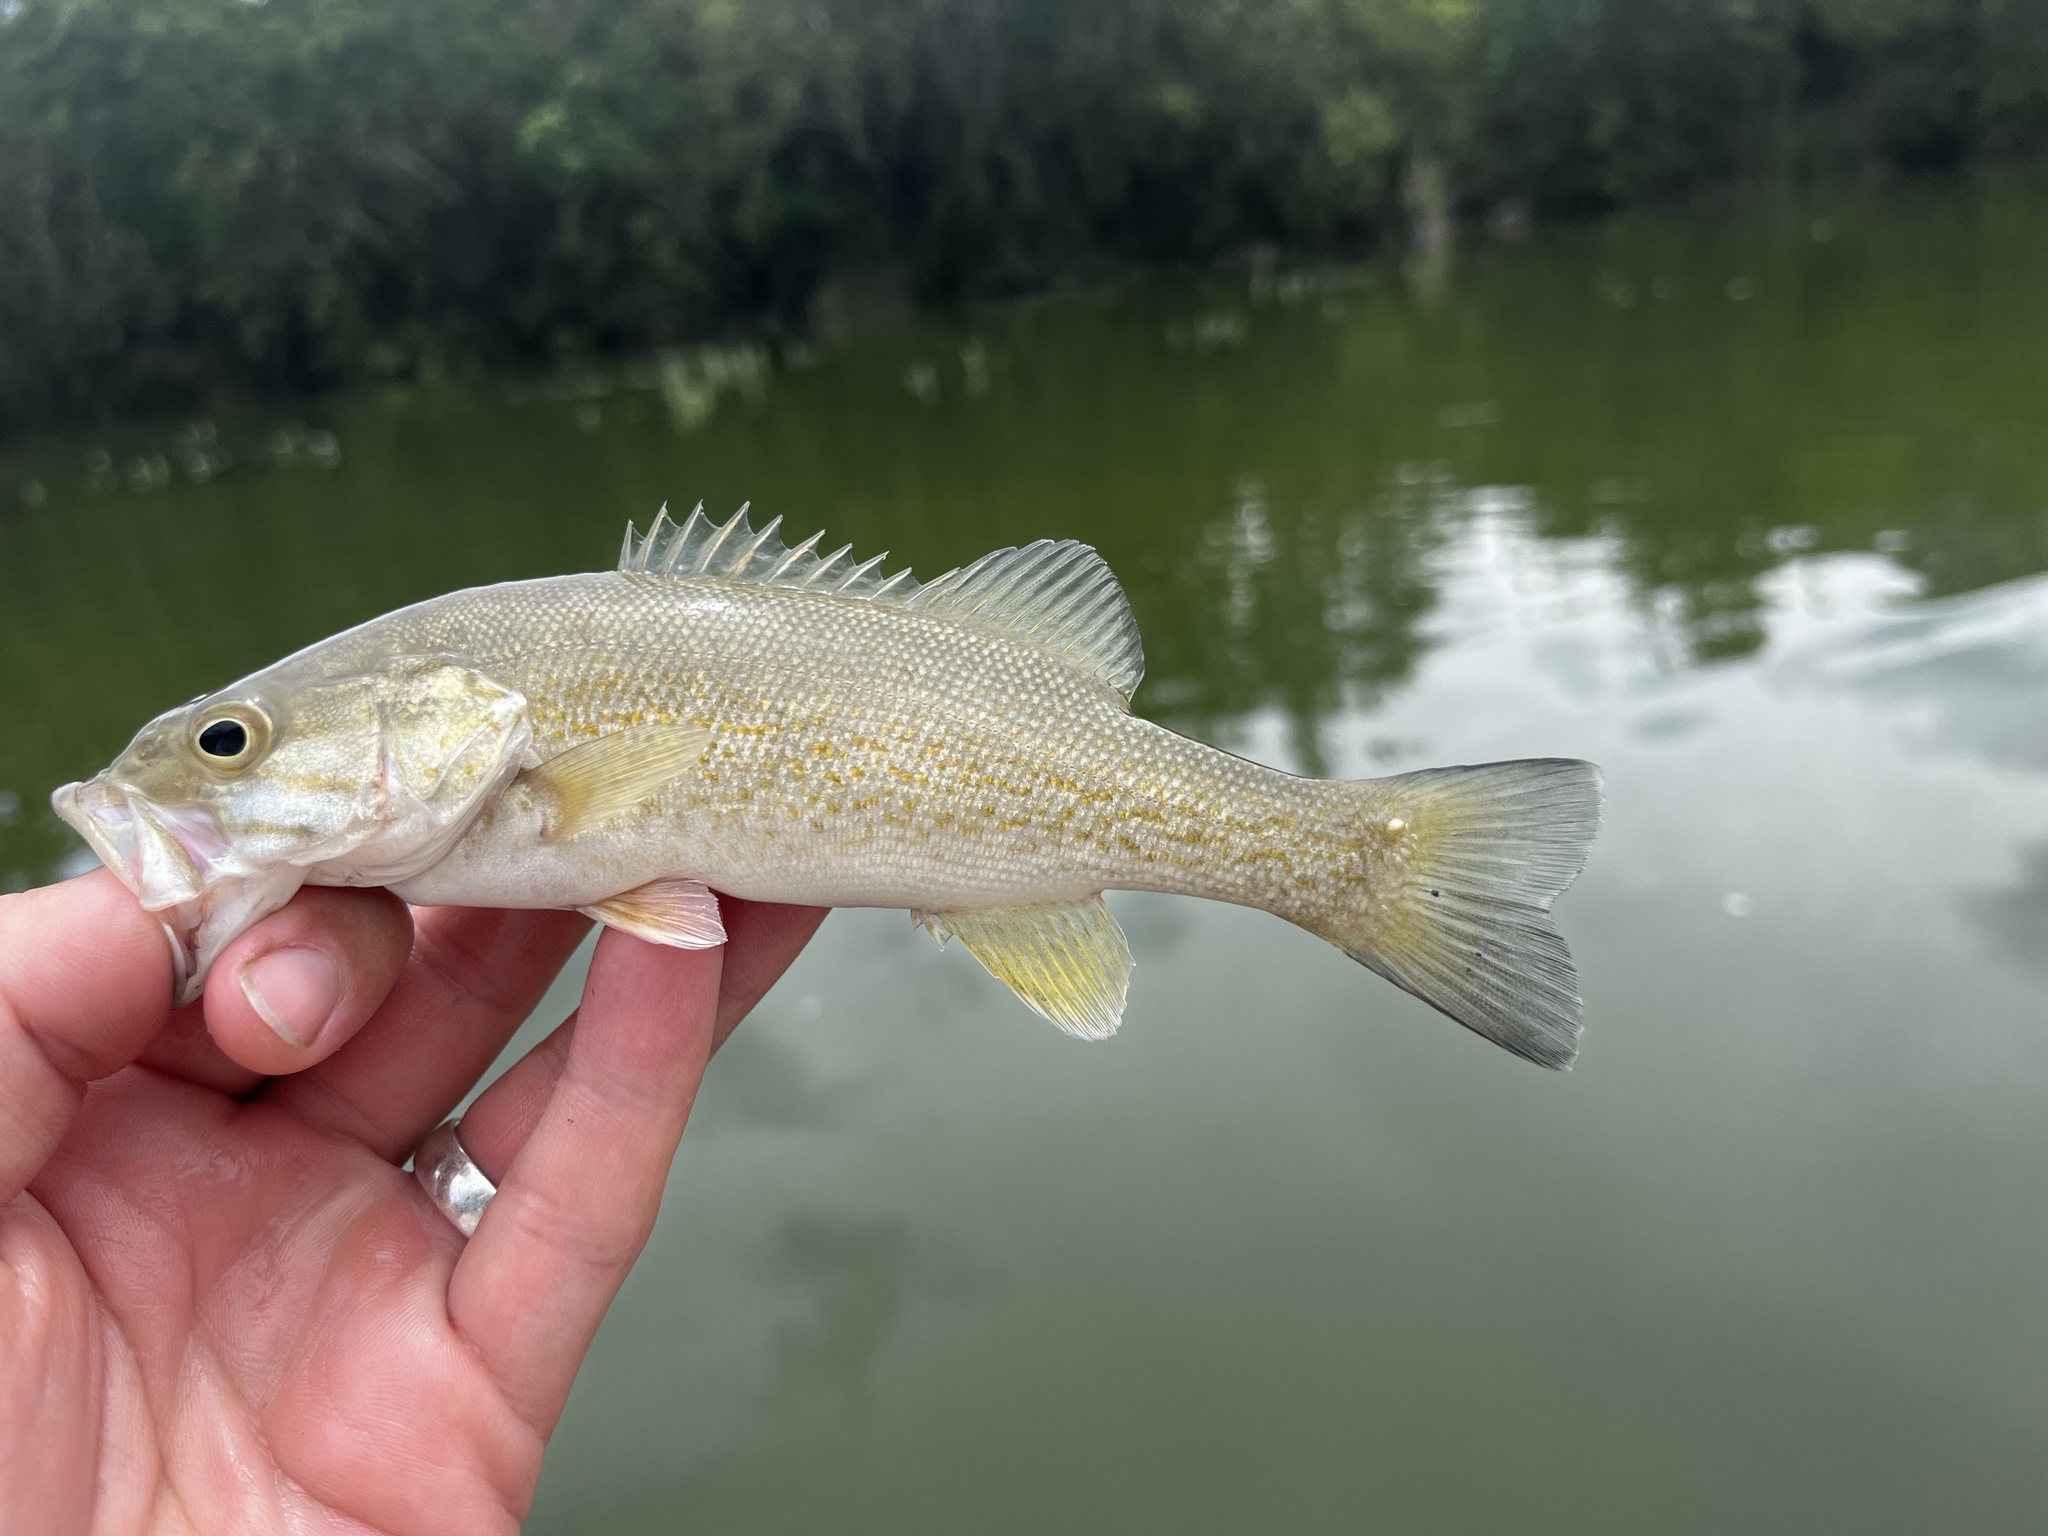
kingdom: Animalia
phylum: Chordata
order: Perciformes
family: Centrarchidae
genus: Micropterus
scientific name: Micropterus dolomieu
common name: Smallmouth bass
